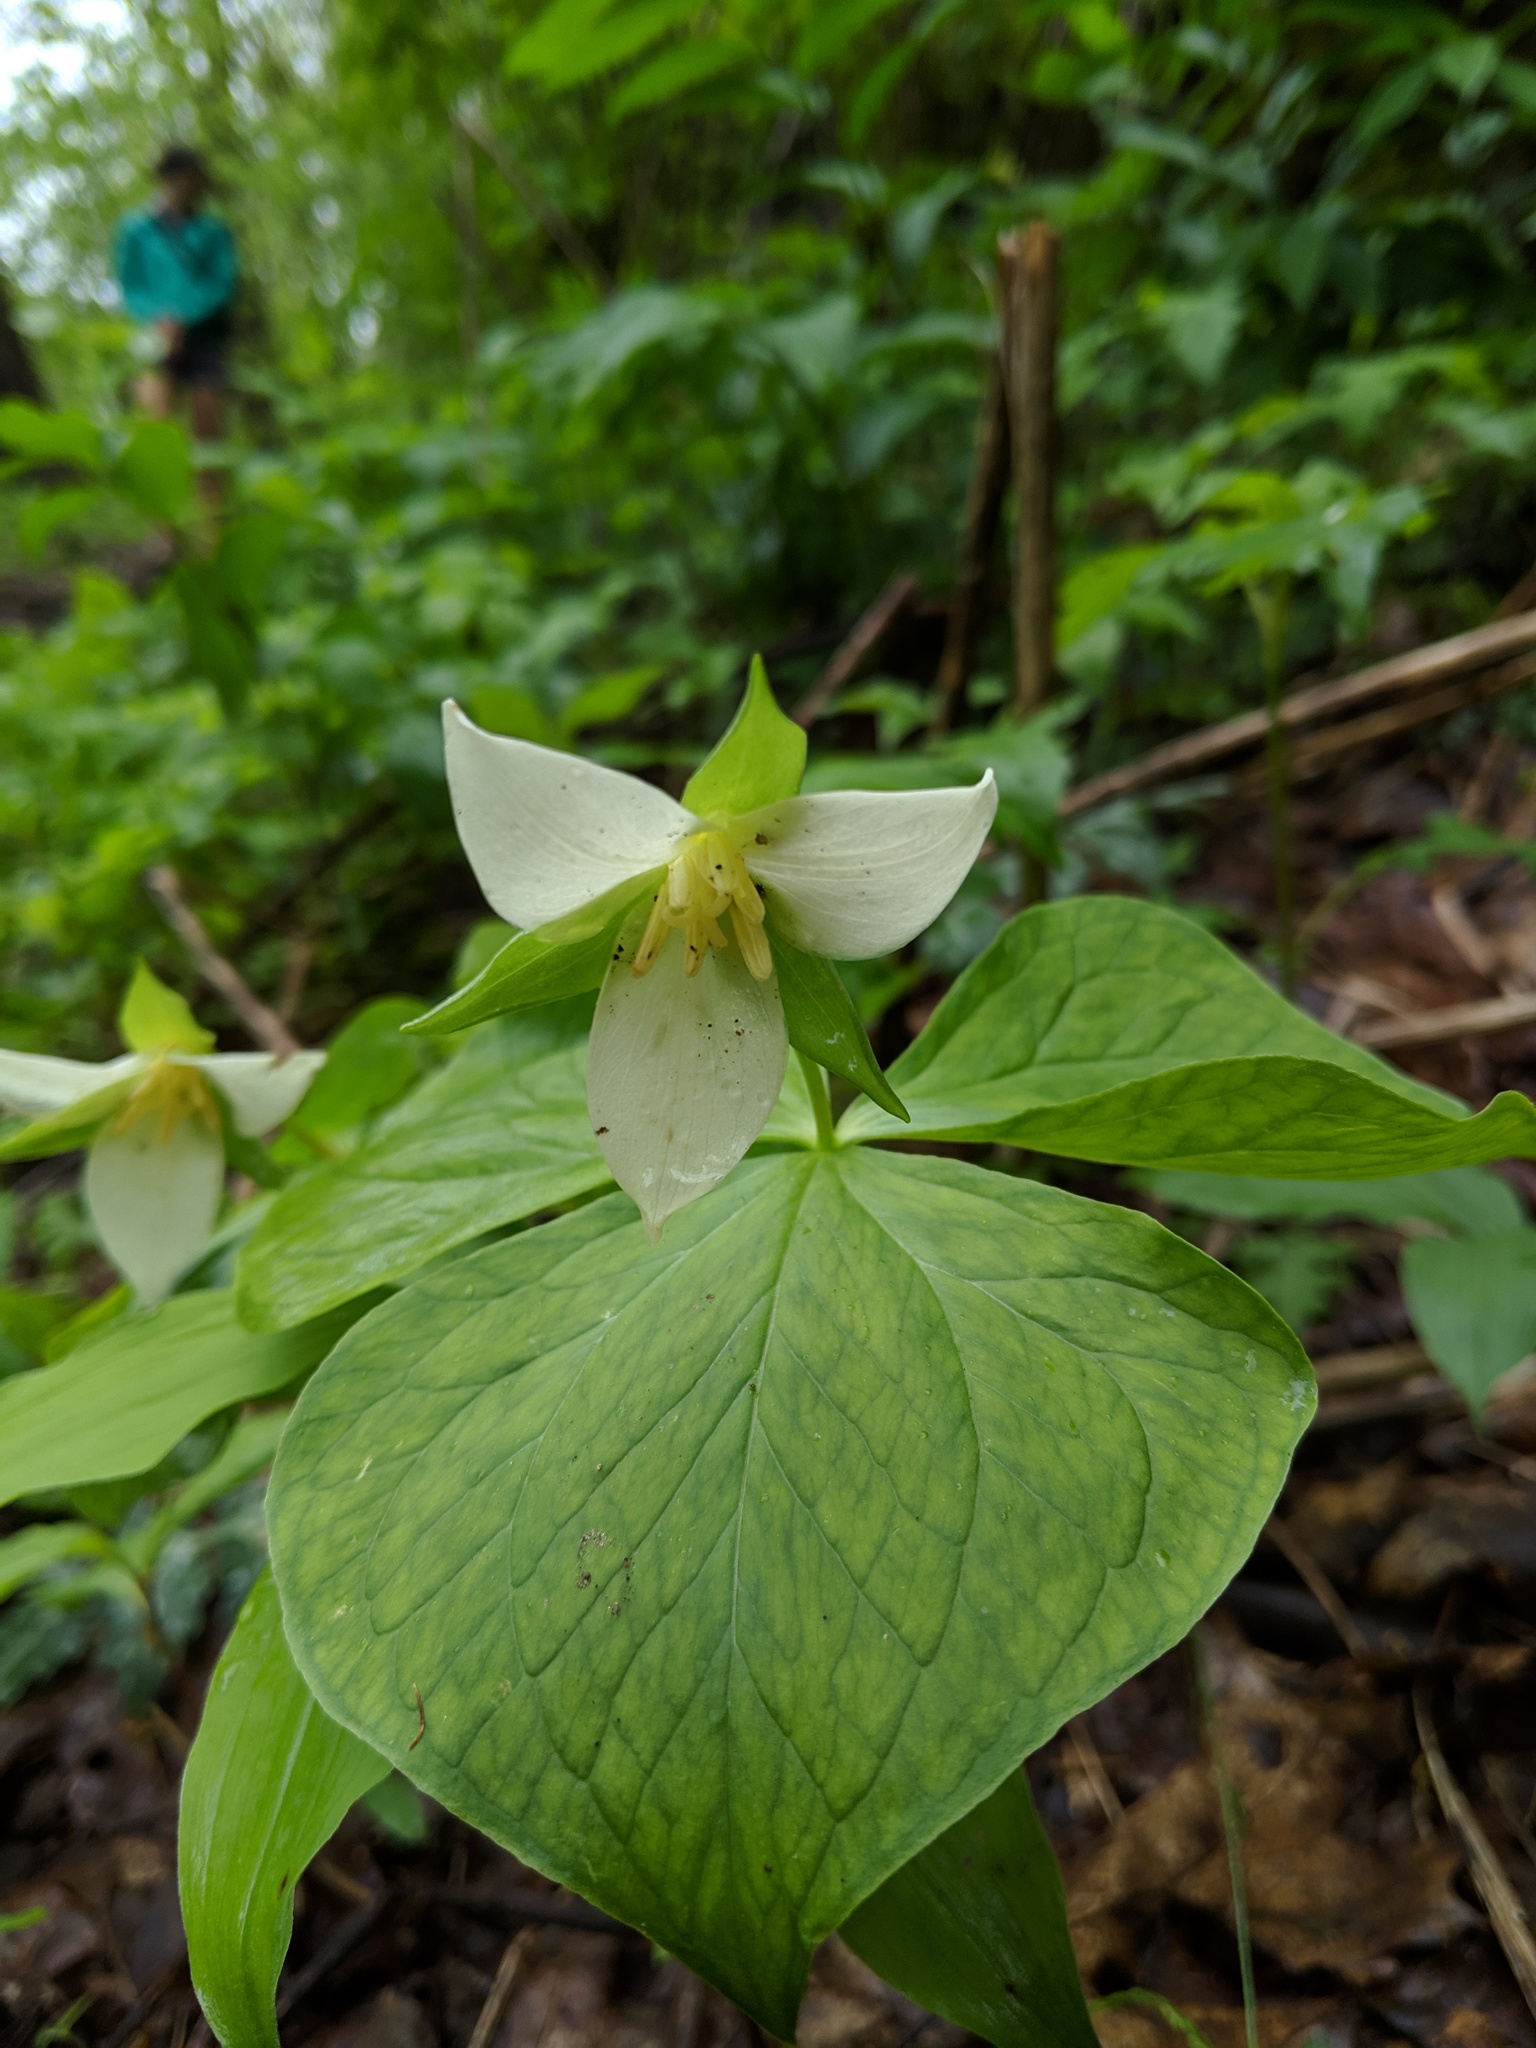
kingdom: Plantae
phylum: Tracheophyta
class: Liliopsida
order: Liliales
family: Melanthiaceae
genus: Trillium
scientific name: Trillium flexipes
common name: Drooping trillium
